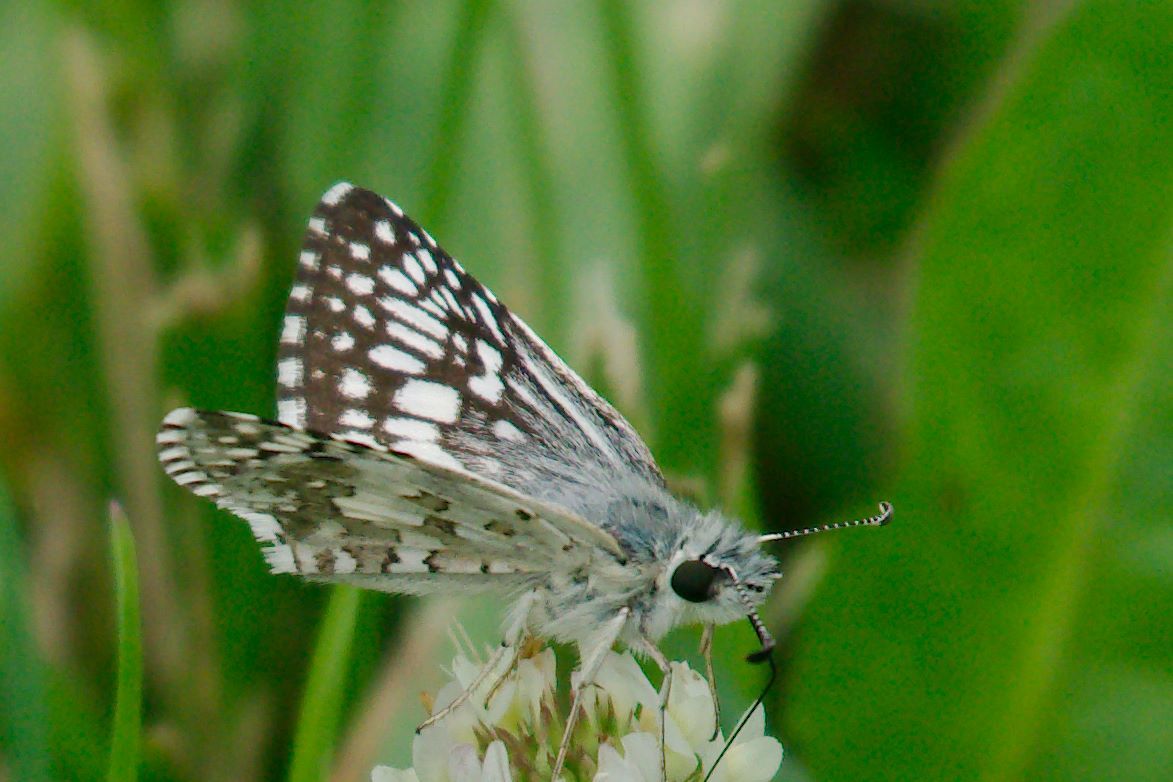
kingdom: Animalia
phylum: Arthropoda
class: Insecta
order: Lepidoptera
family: Hesperiidae
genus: Burnsius
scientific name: Burnsius communis
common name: Common checkered-skipper
